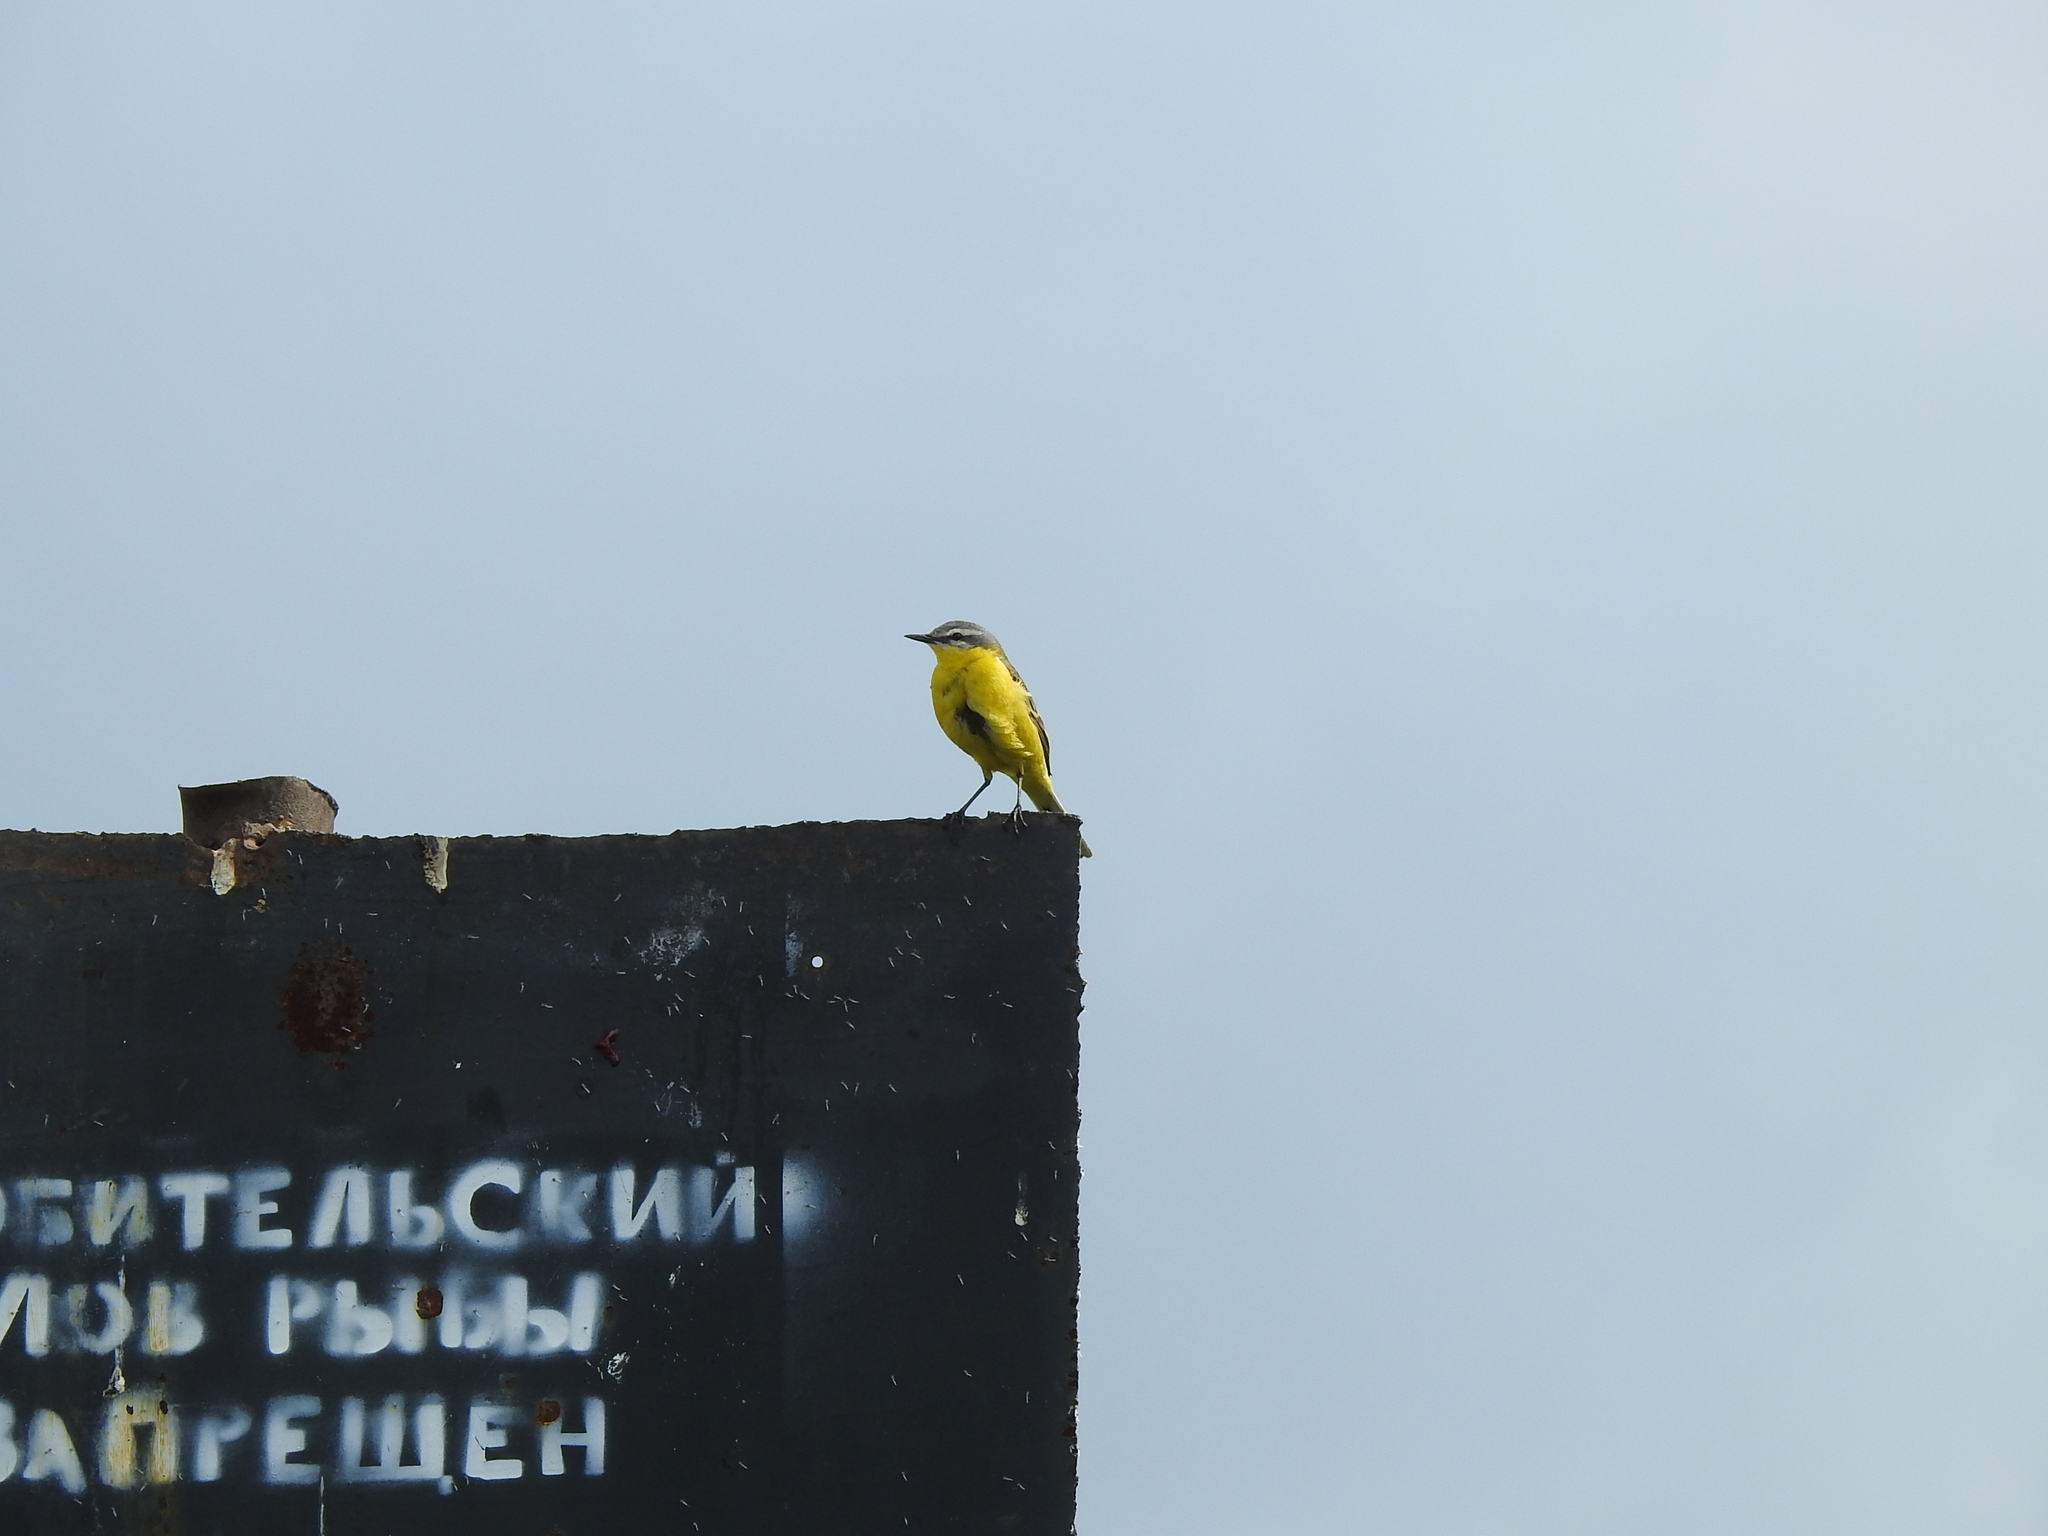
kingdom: Animalia
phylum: Chordata
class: Aves
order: Passeriformes
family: Motacillidae
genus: Motacilla
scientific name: Motacilla flava
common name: Western yellow wagtail
